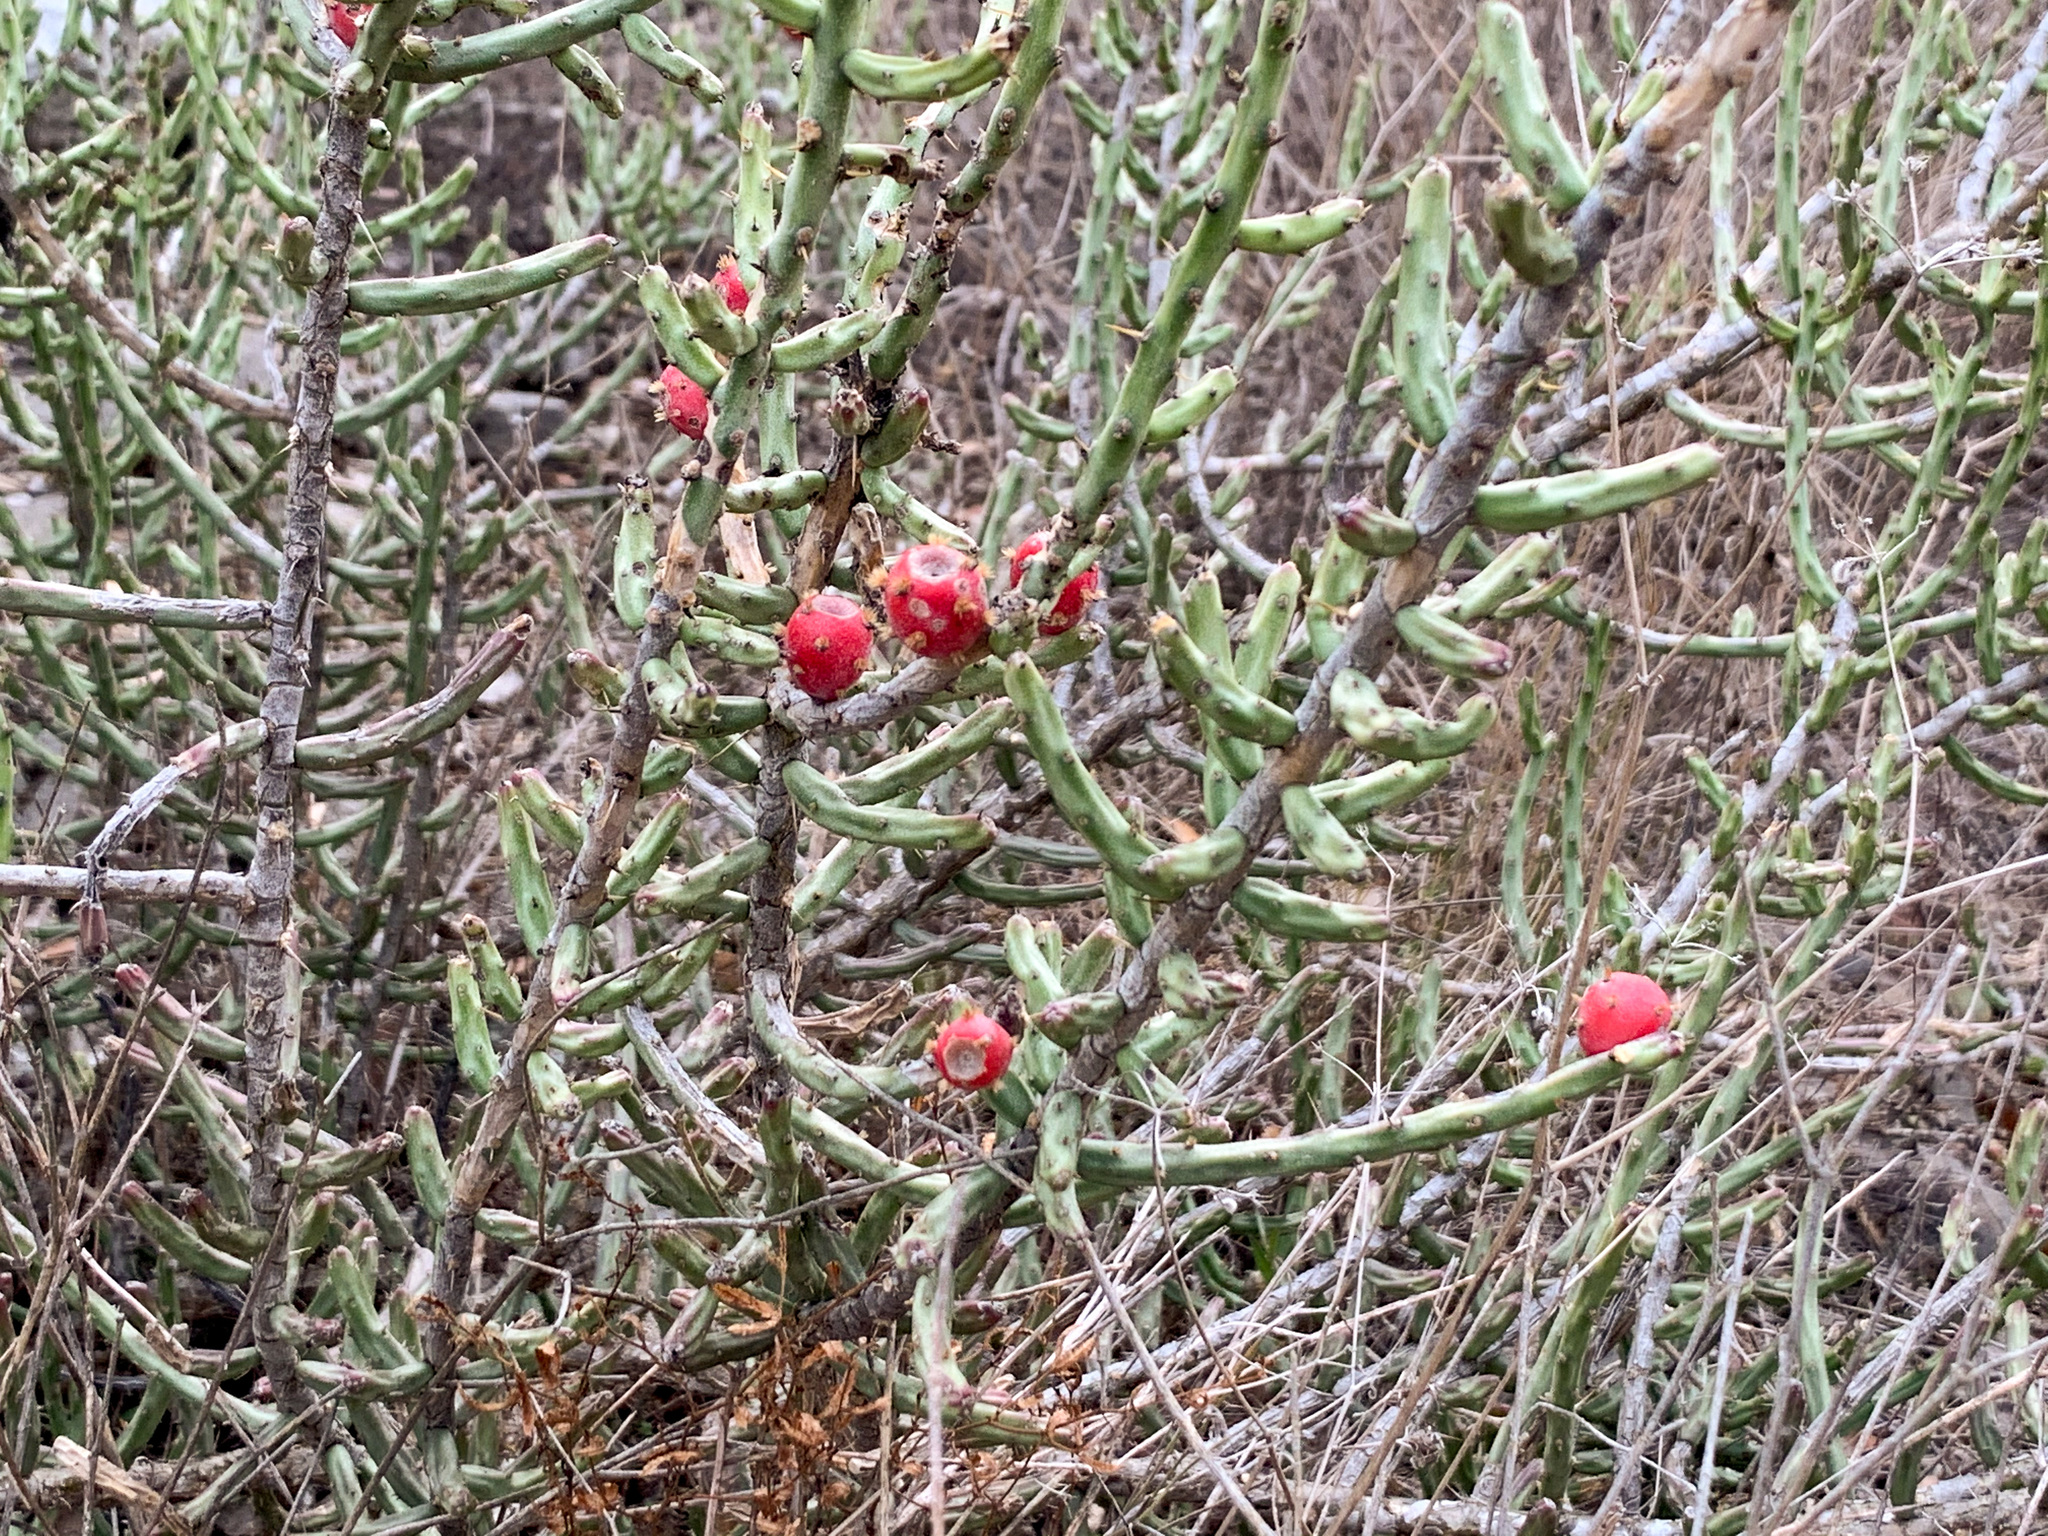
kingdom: Plantae
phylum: Tracheophyta
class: Magnoliopsida
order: Caryophyllales
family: Cactaceae
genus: Cylindropuntia
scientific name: Cylindropuntia leptocaulis
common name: Christmas cactus
